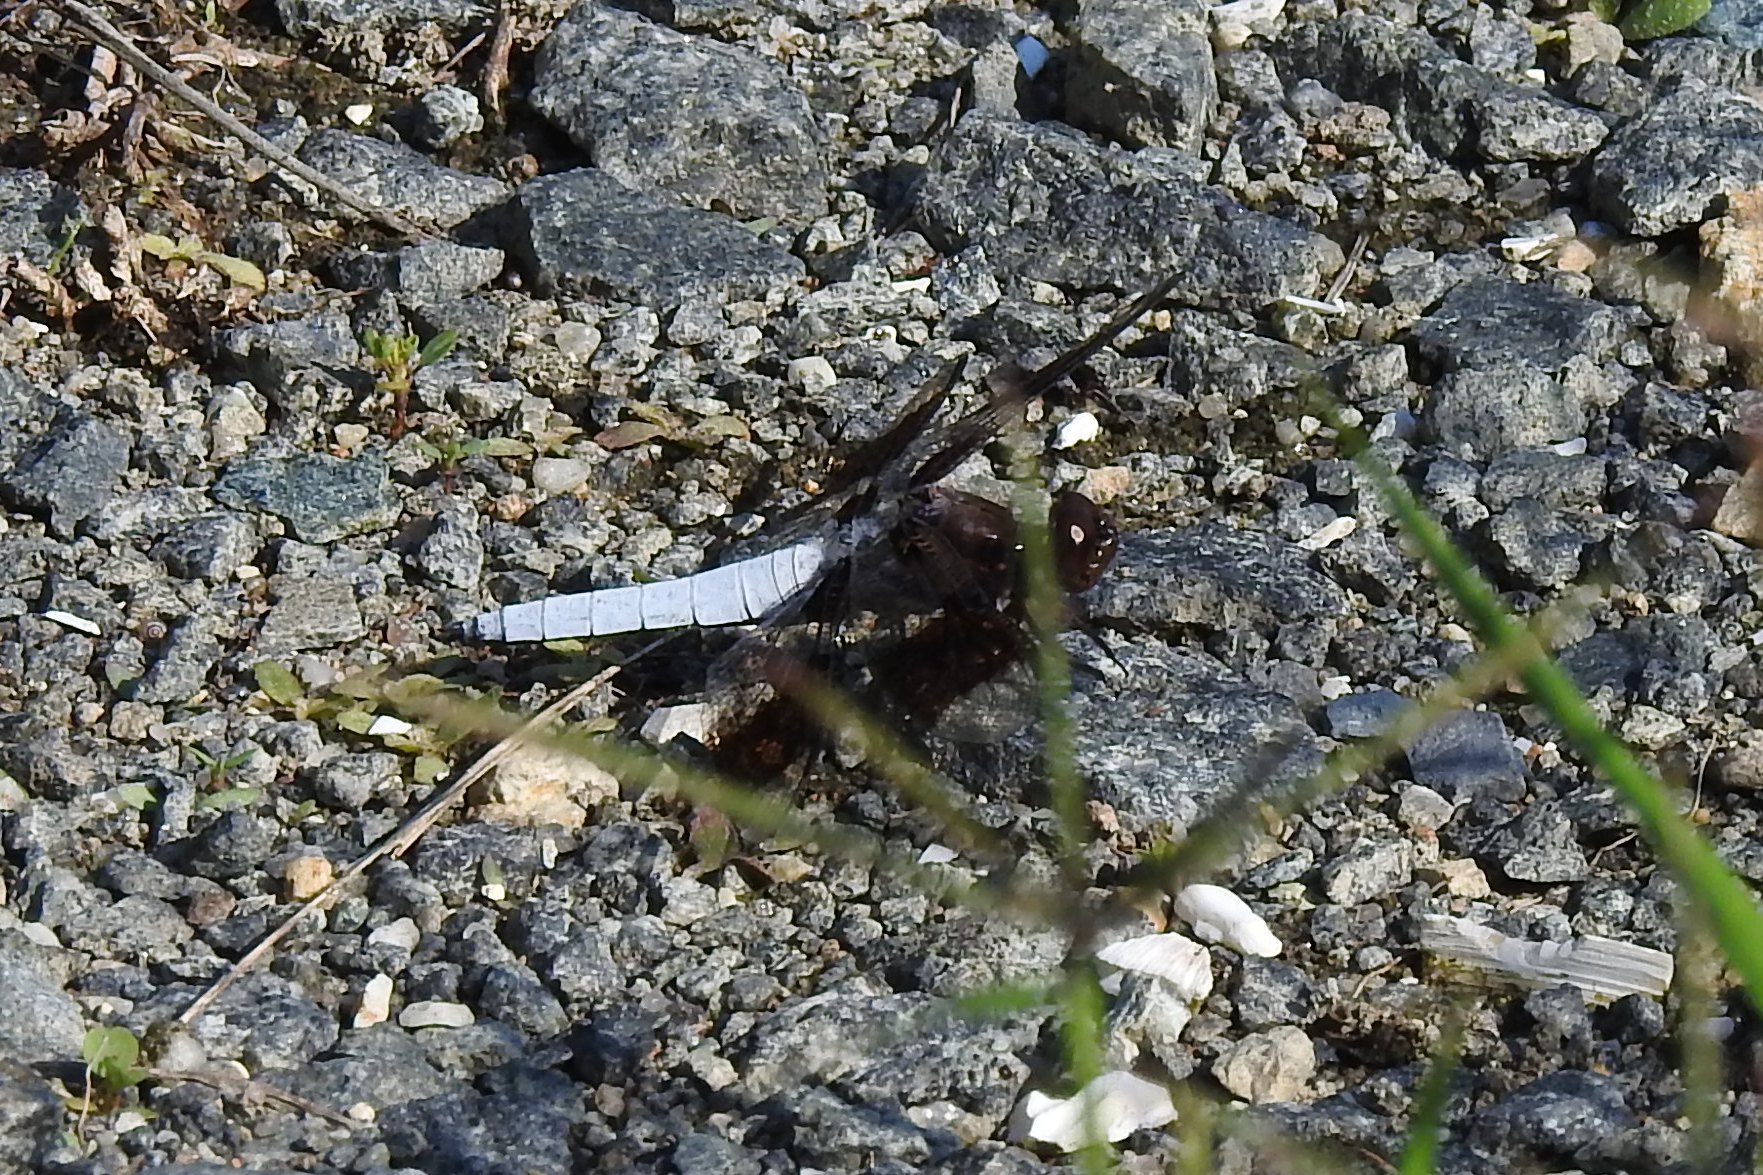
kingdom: Animalia
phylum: Arthropoda
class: Insecta
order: Odonata
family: Libellulidae
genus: Plathemis
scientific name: Plathemis lydia
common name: Common whitetail
